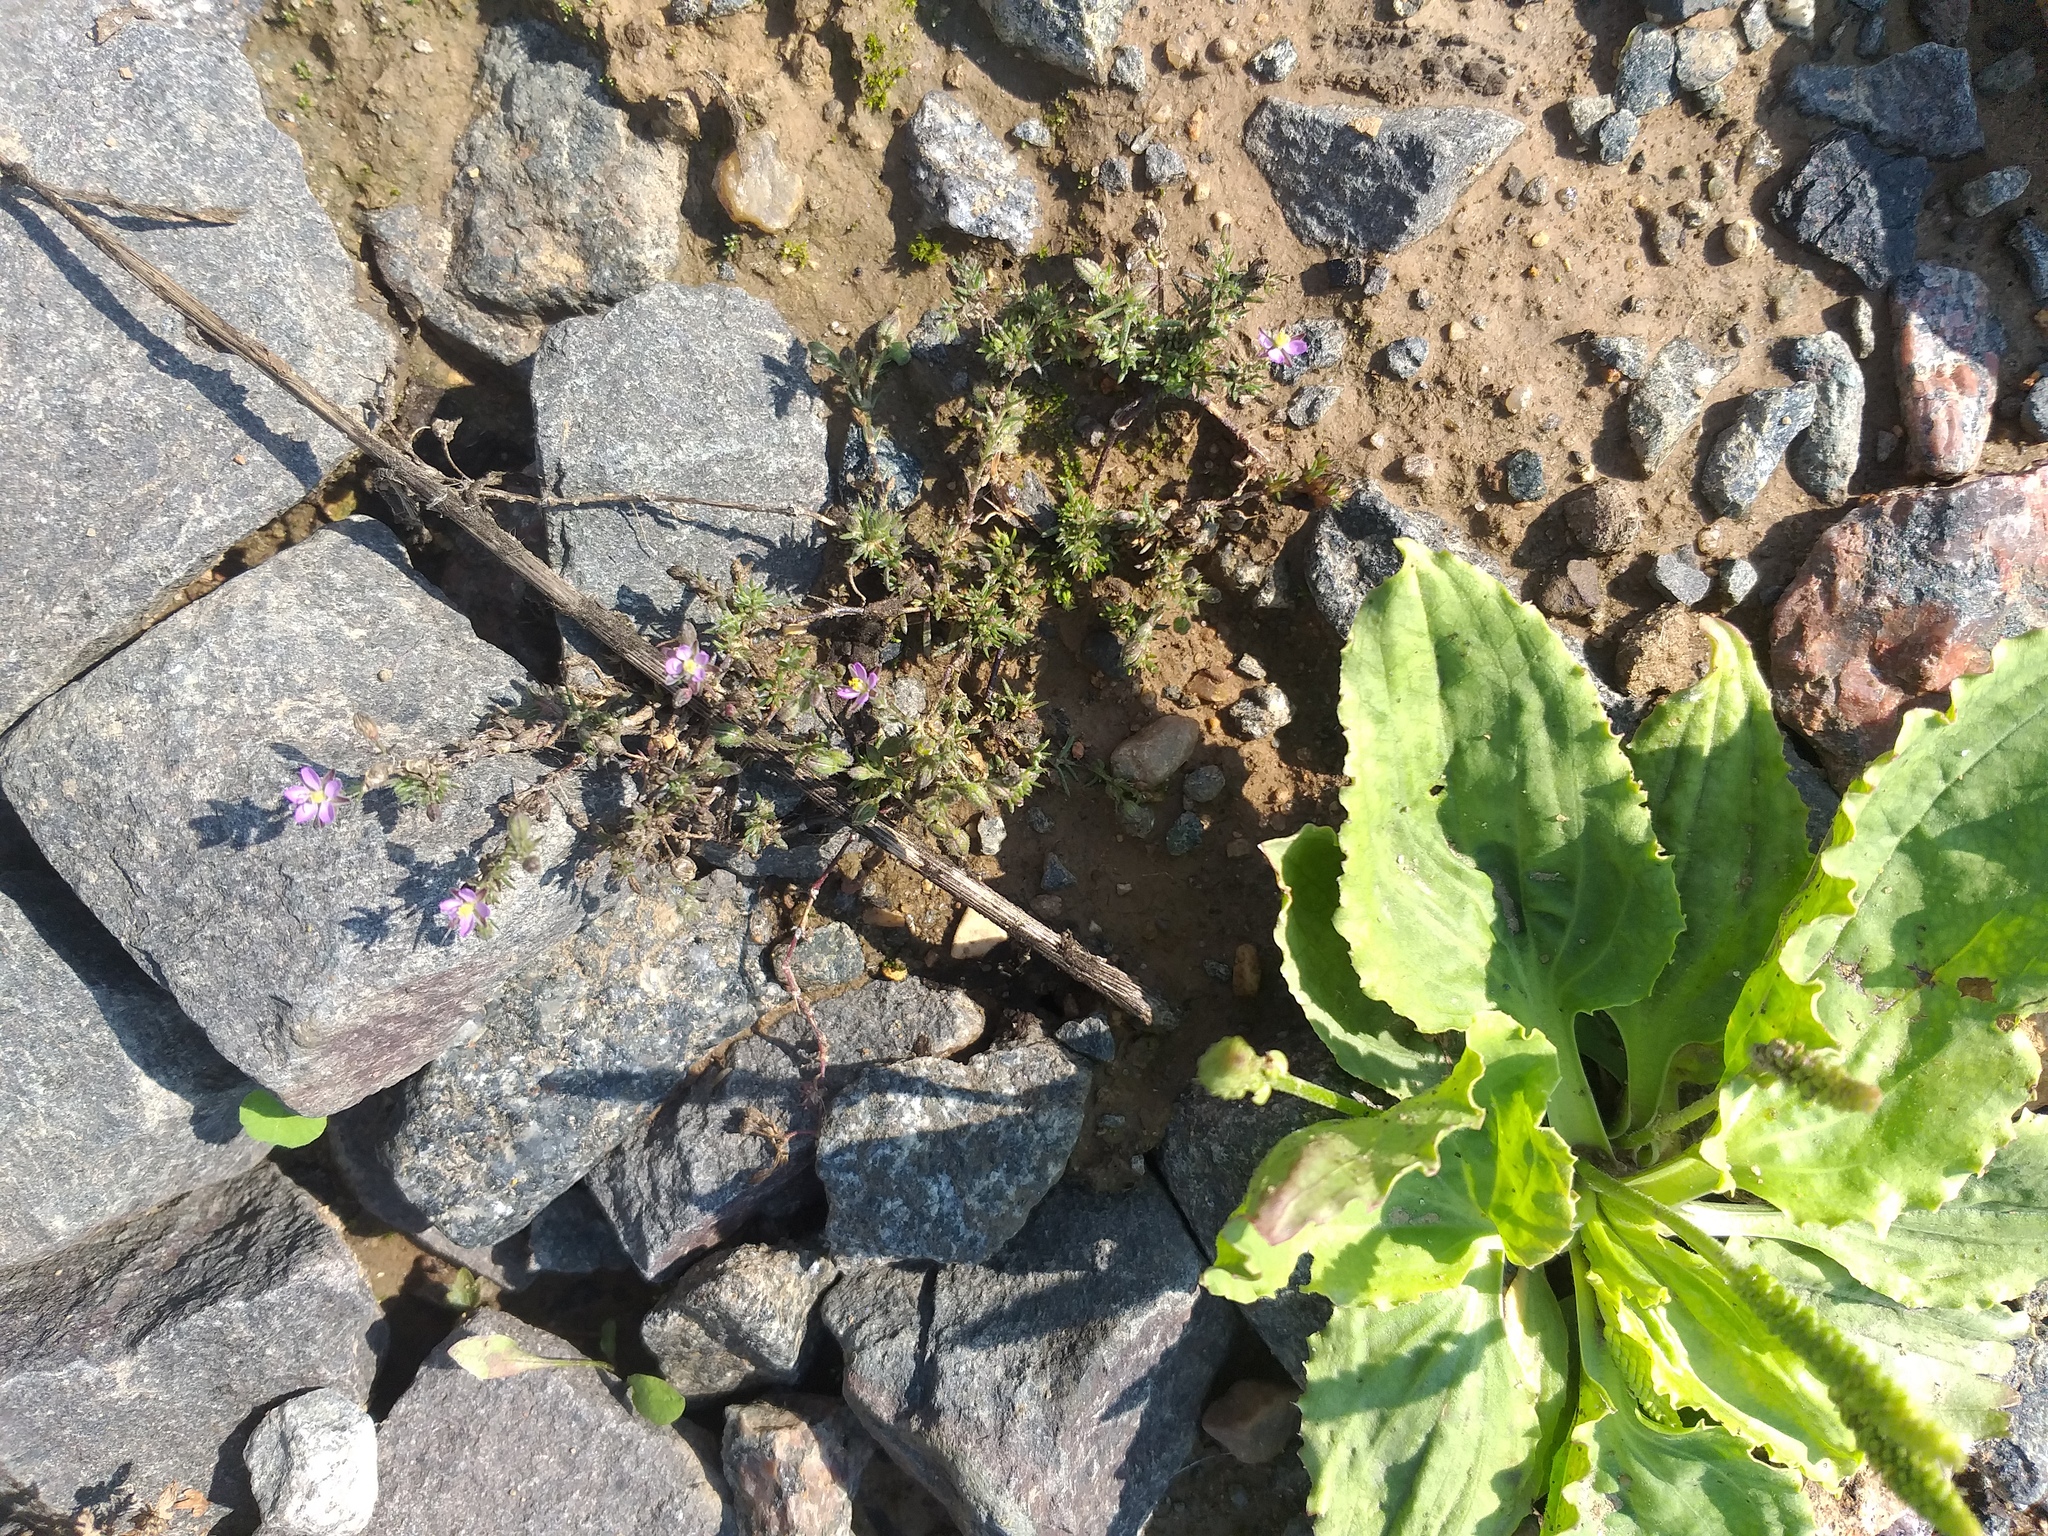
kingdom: Plantae
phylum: Tracheophyta
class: Magnoliopsida
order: Caryophyllales
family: Caryophyllaceae
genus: Spergularia
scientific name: Spergularia rubra
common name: Red sand-spurrey
